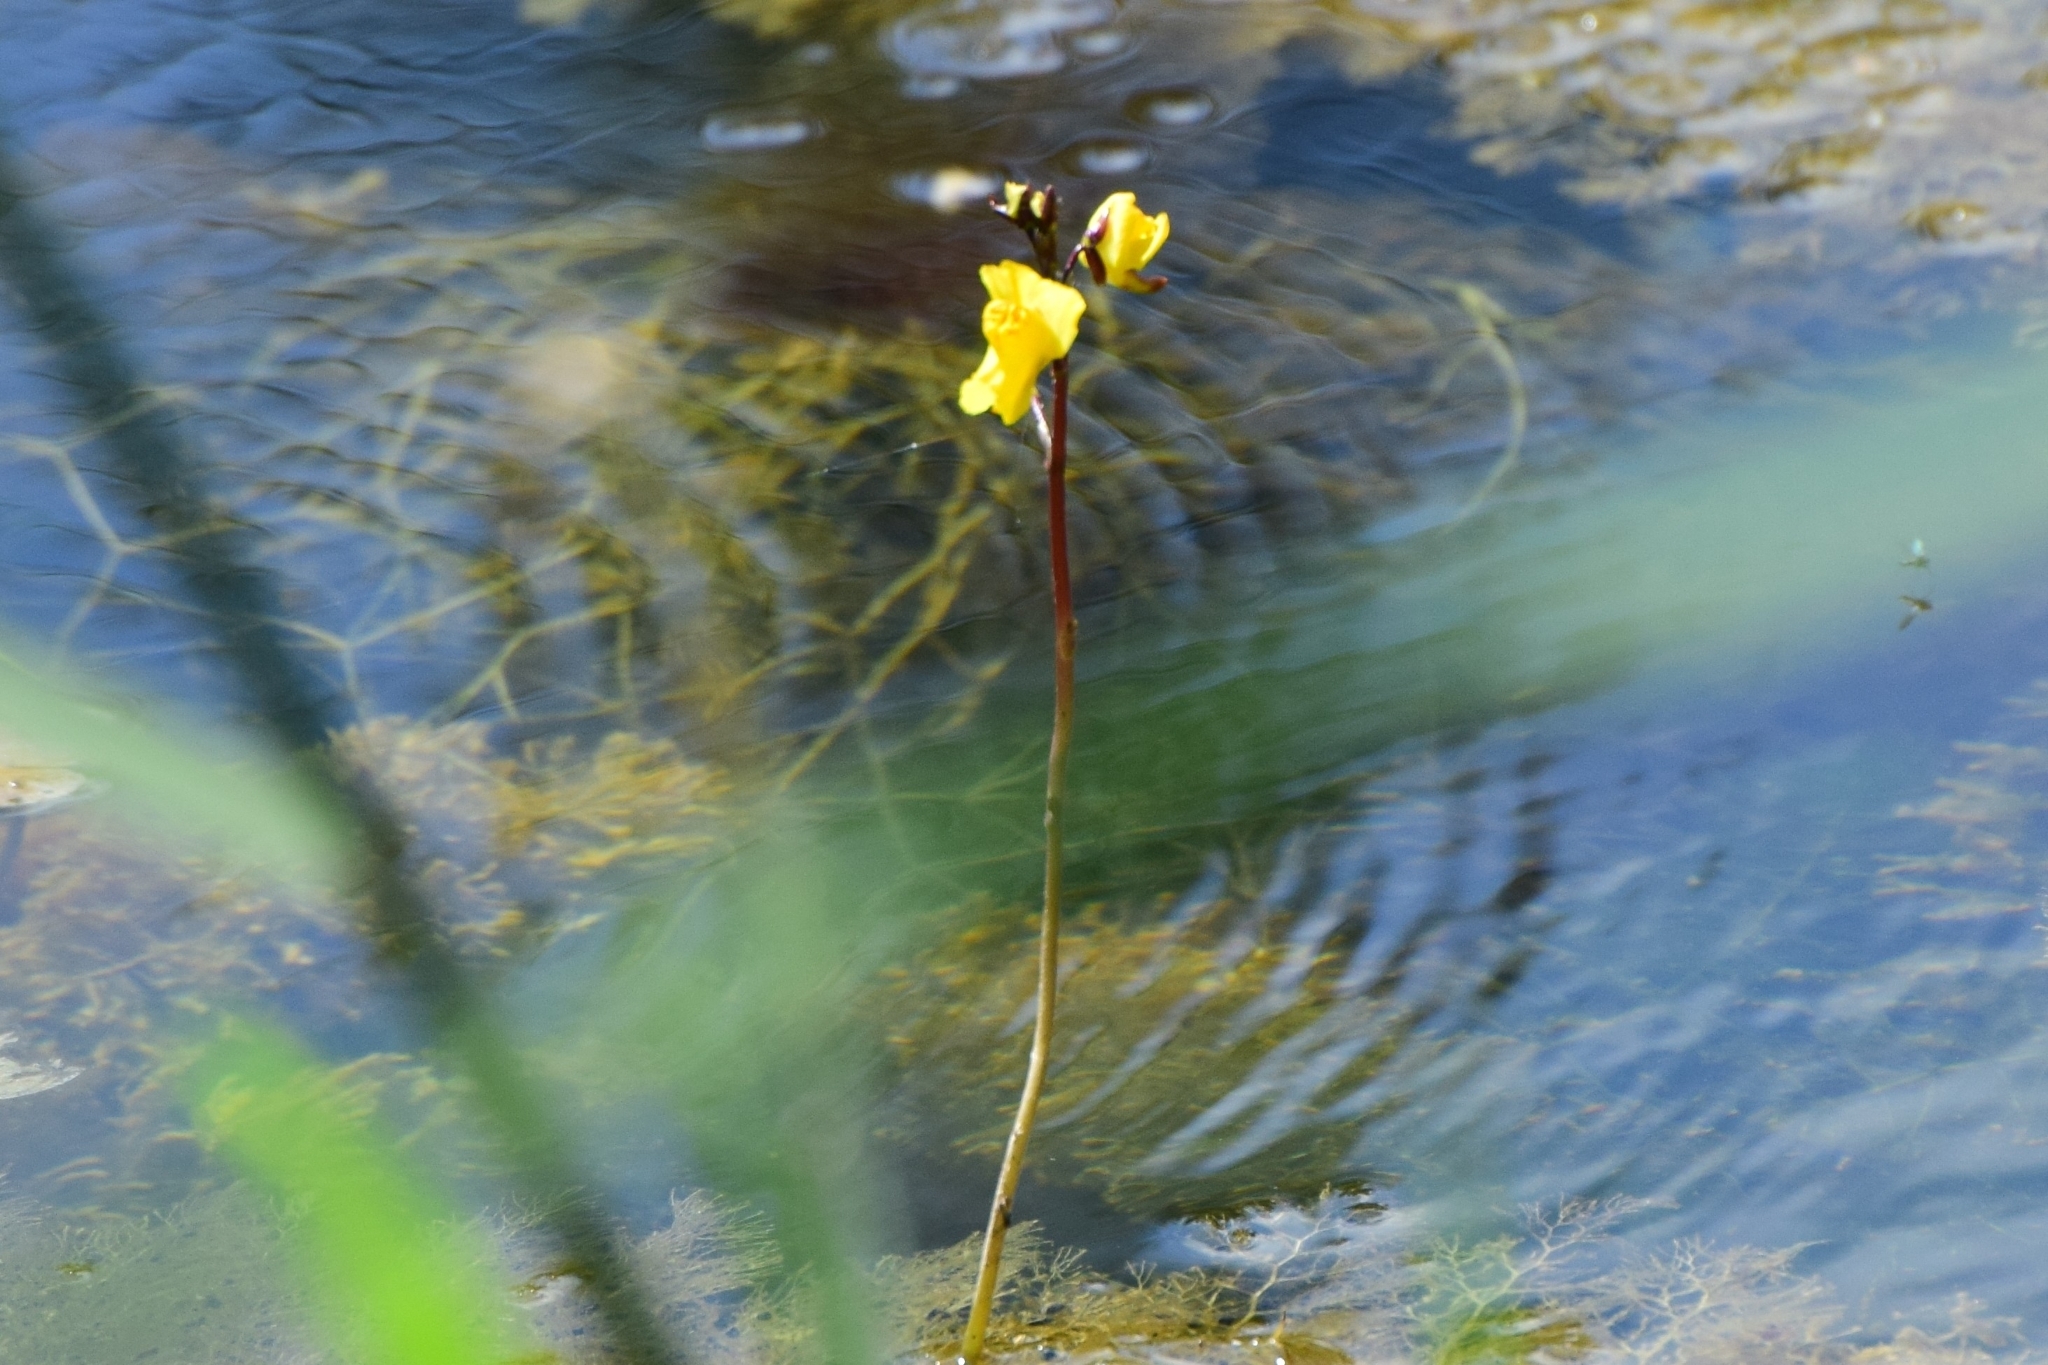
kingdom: Plantae
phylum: Tracheophyta
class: Magnoliopsida
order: Lamiales
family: Lentibulariaceae
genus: Utricularia
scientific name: Utricularia vulgaris
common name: Greater bladderwort
